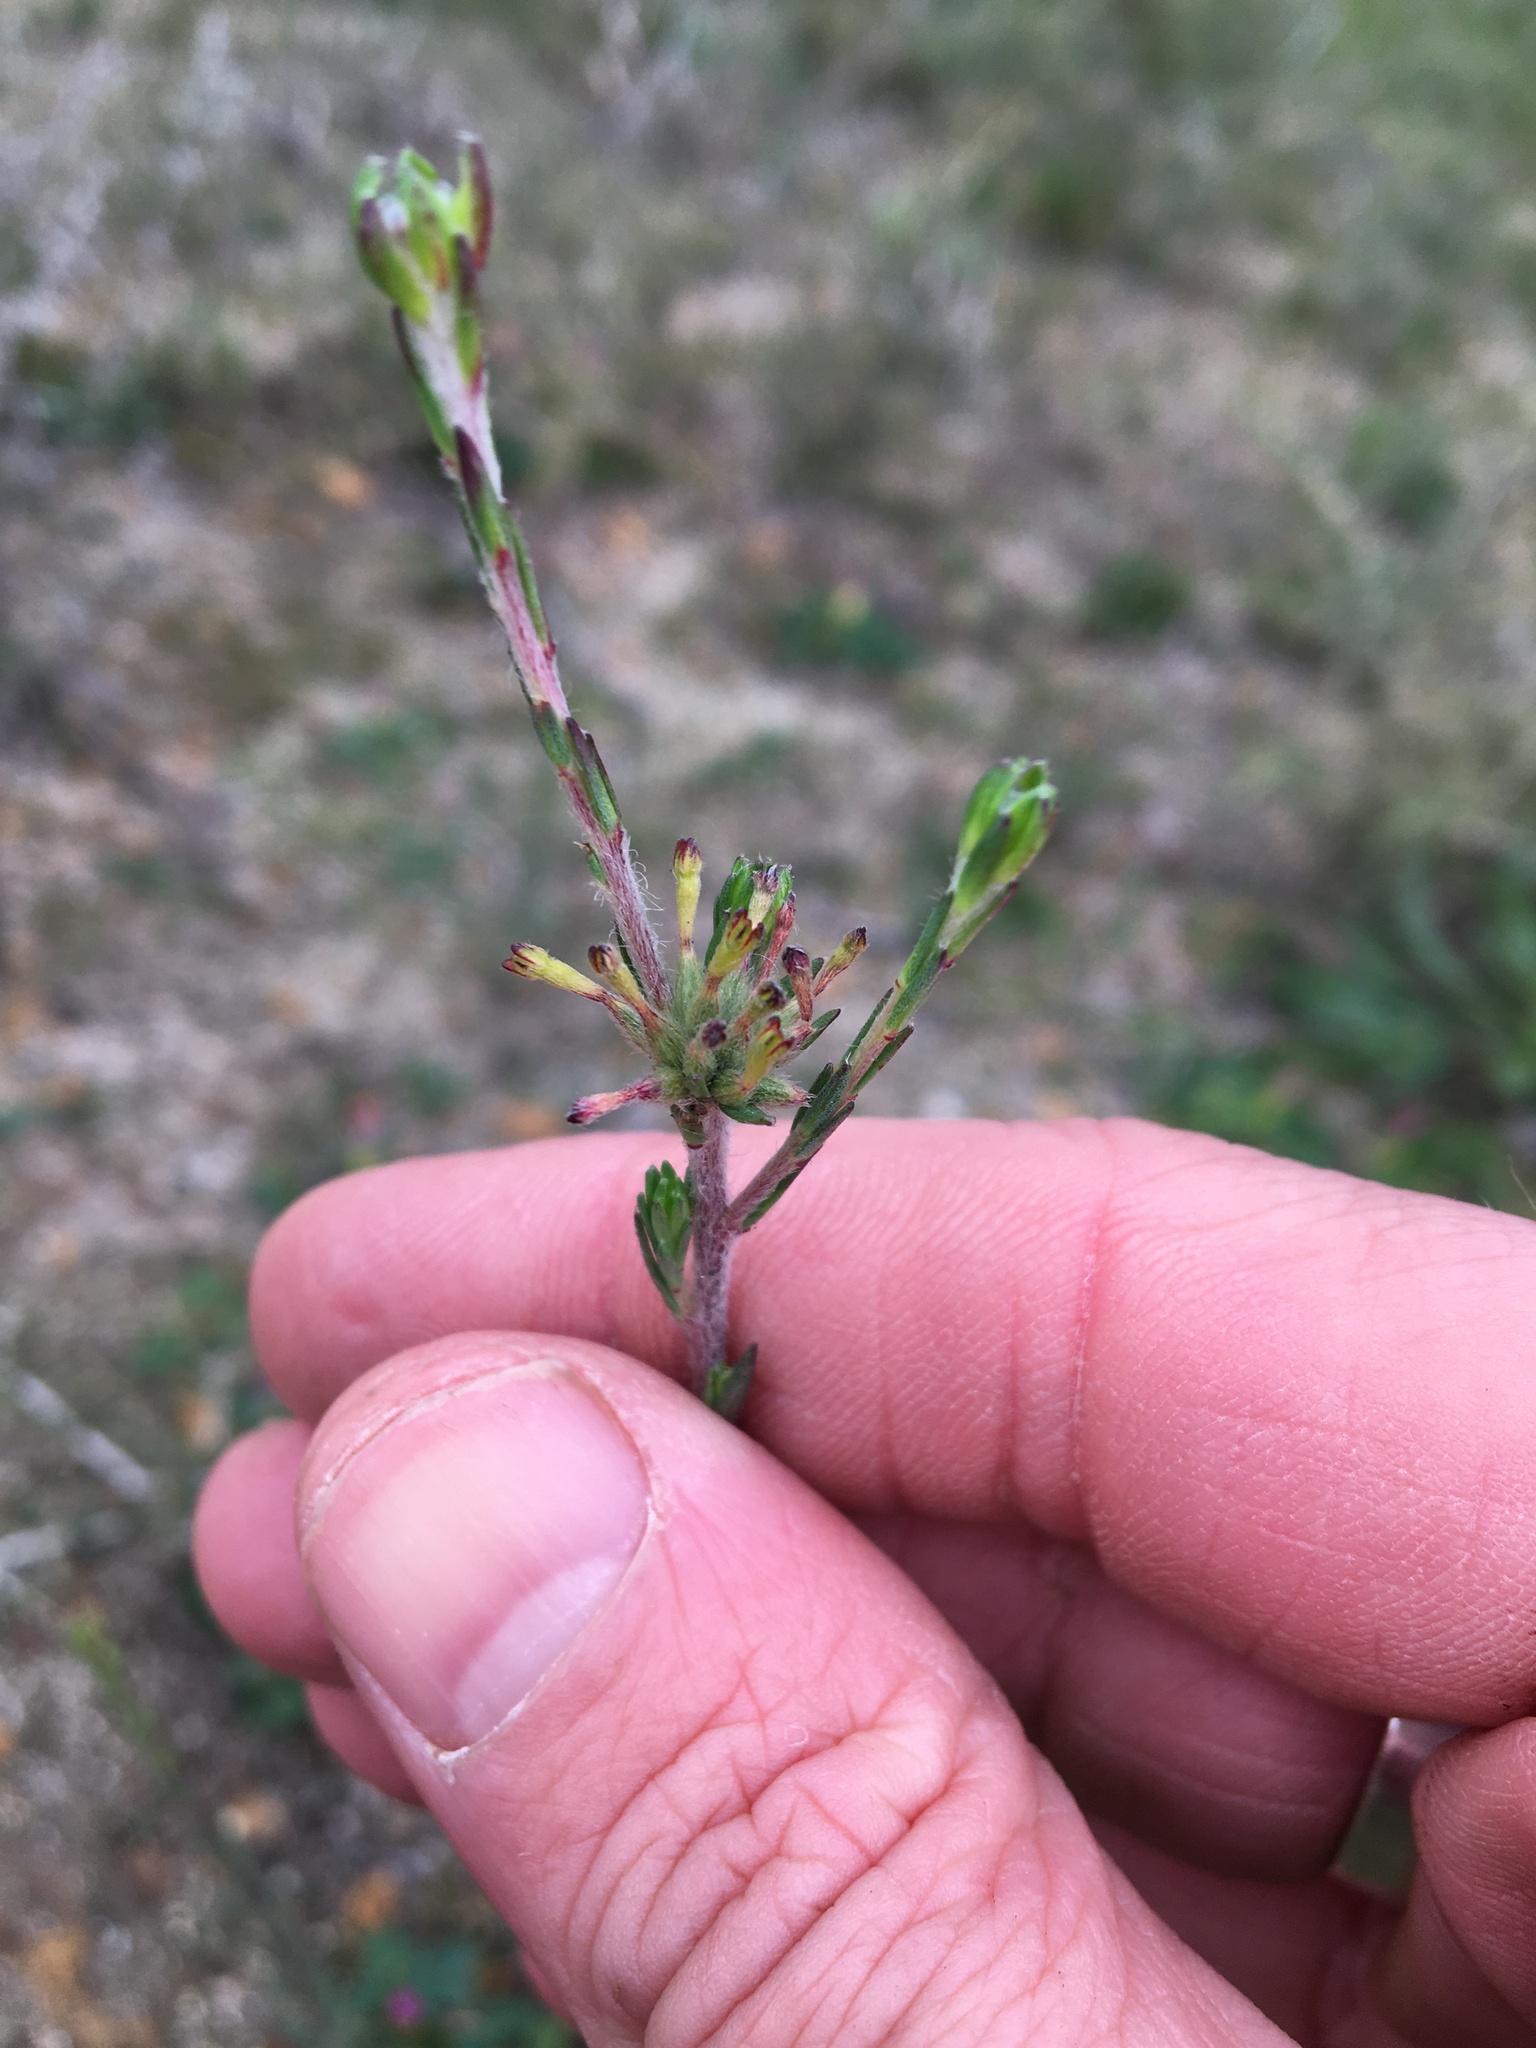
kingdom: Plantae
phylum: Tracheophyta
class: Magnoliopsida
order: Malvales
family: Thymelaeaceae
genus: Gnidia
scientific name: Gnidia laxa
